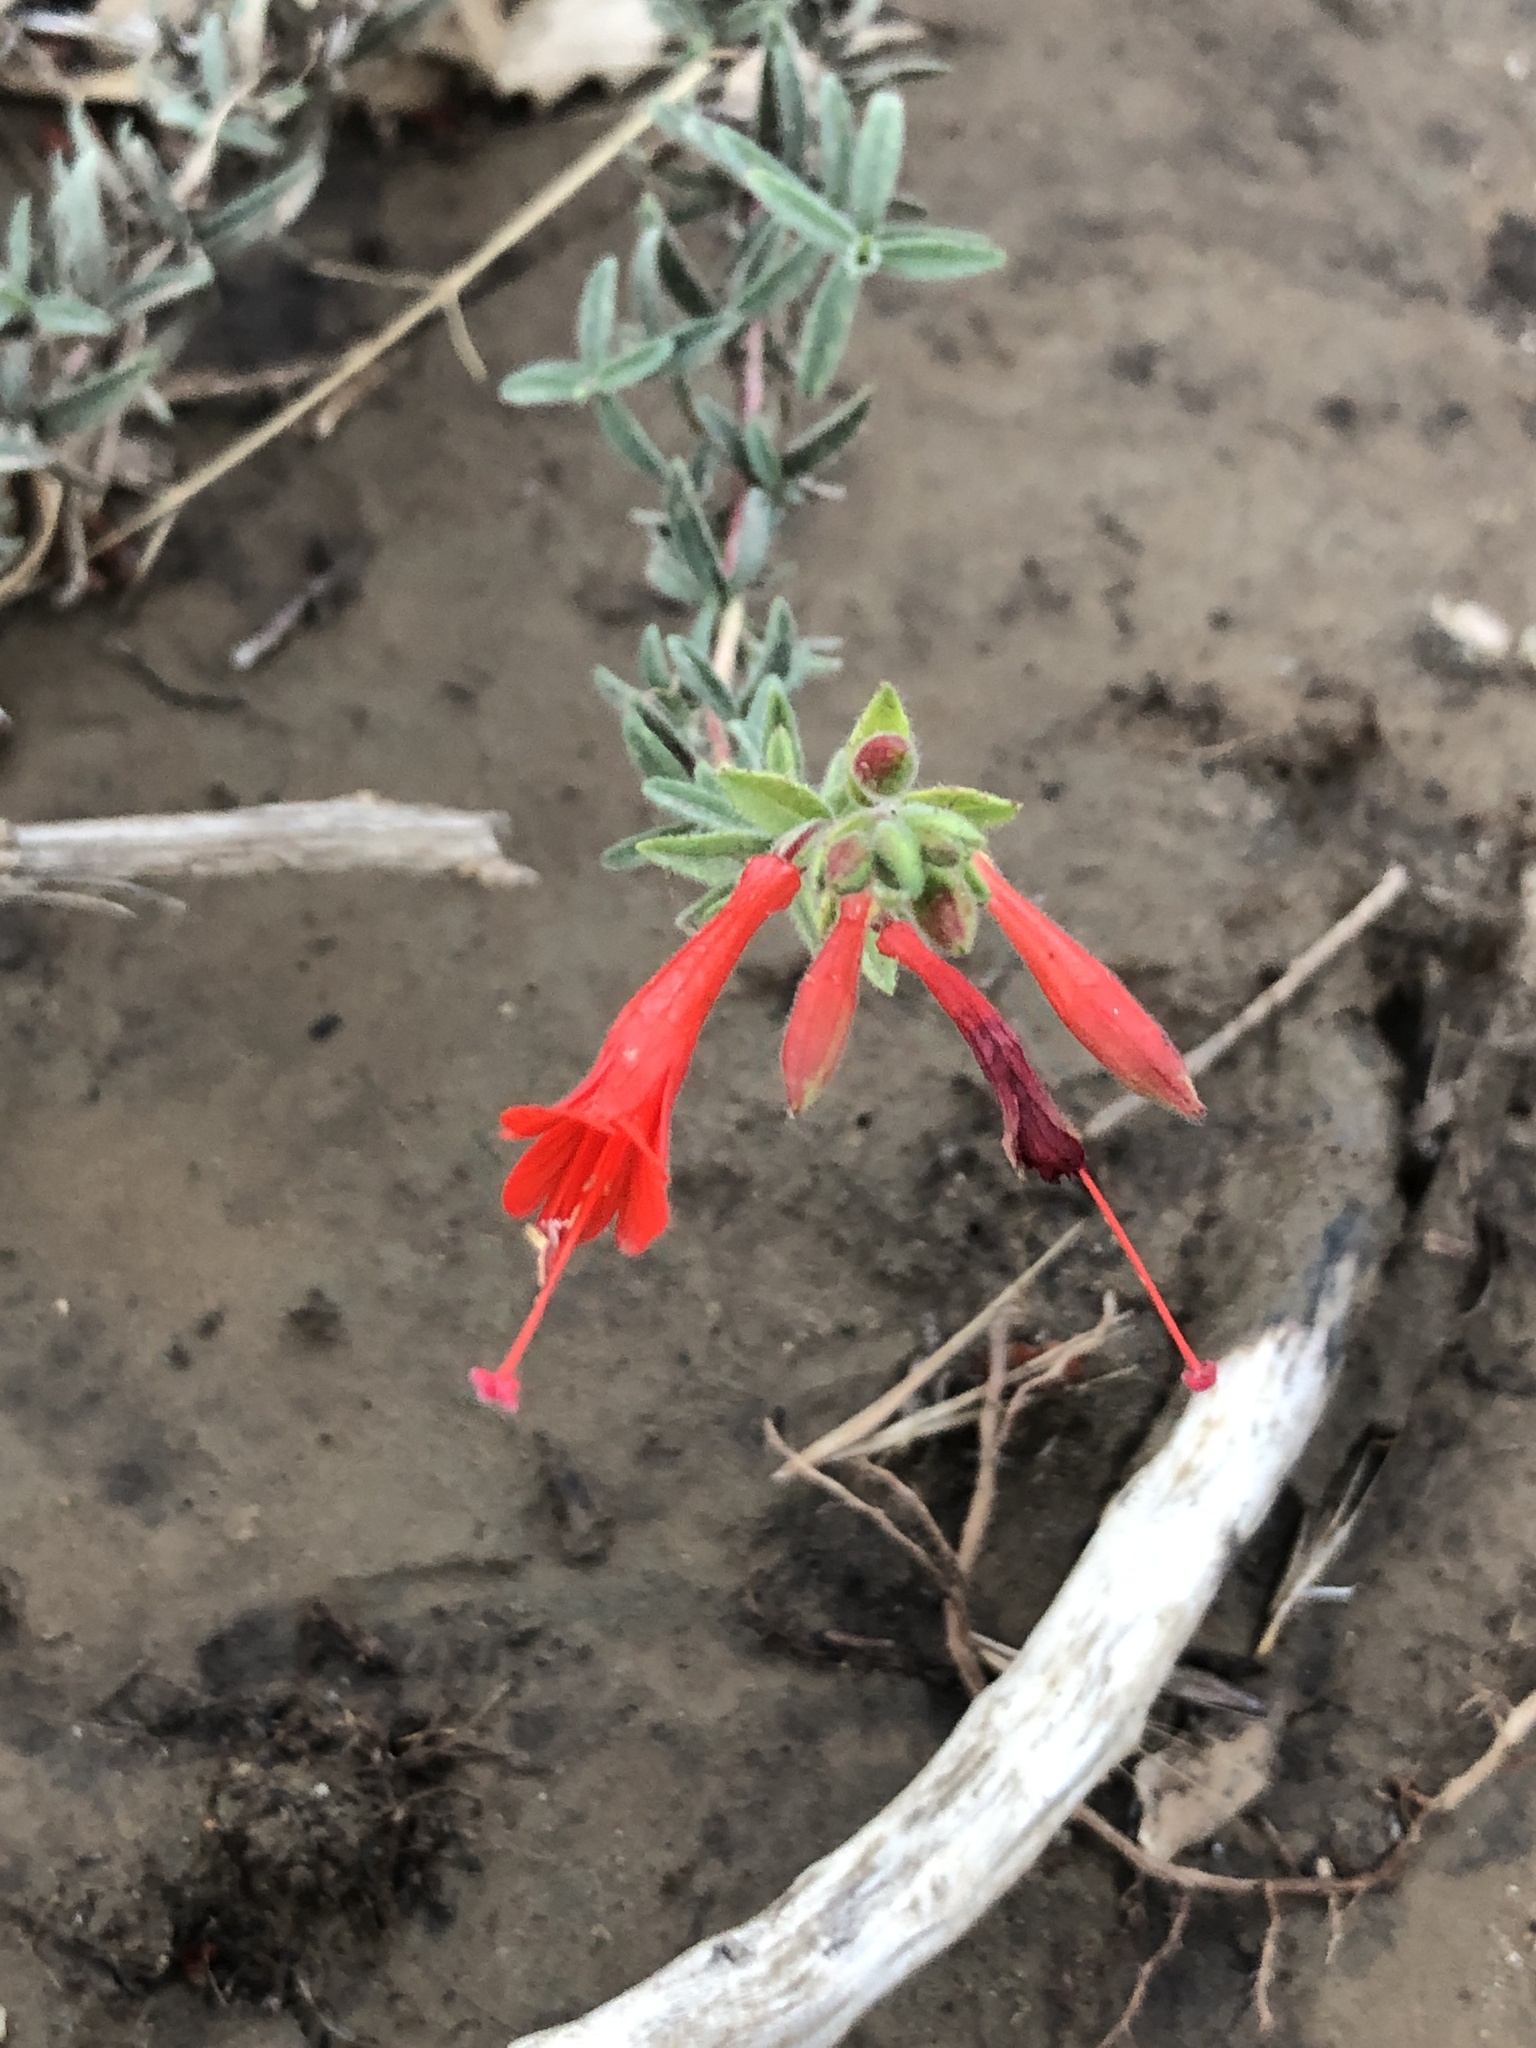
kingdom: Plantae
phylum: Tracheophyta
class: Magnoliopsida
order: Myrtales
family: Onagraceae
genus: Epilobium
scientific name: Epilobium canum
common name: California-fuchsia
